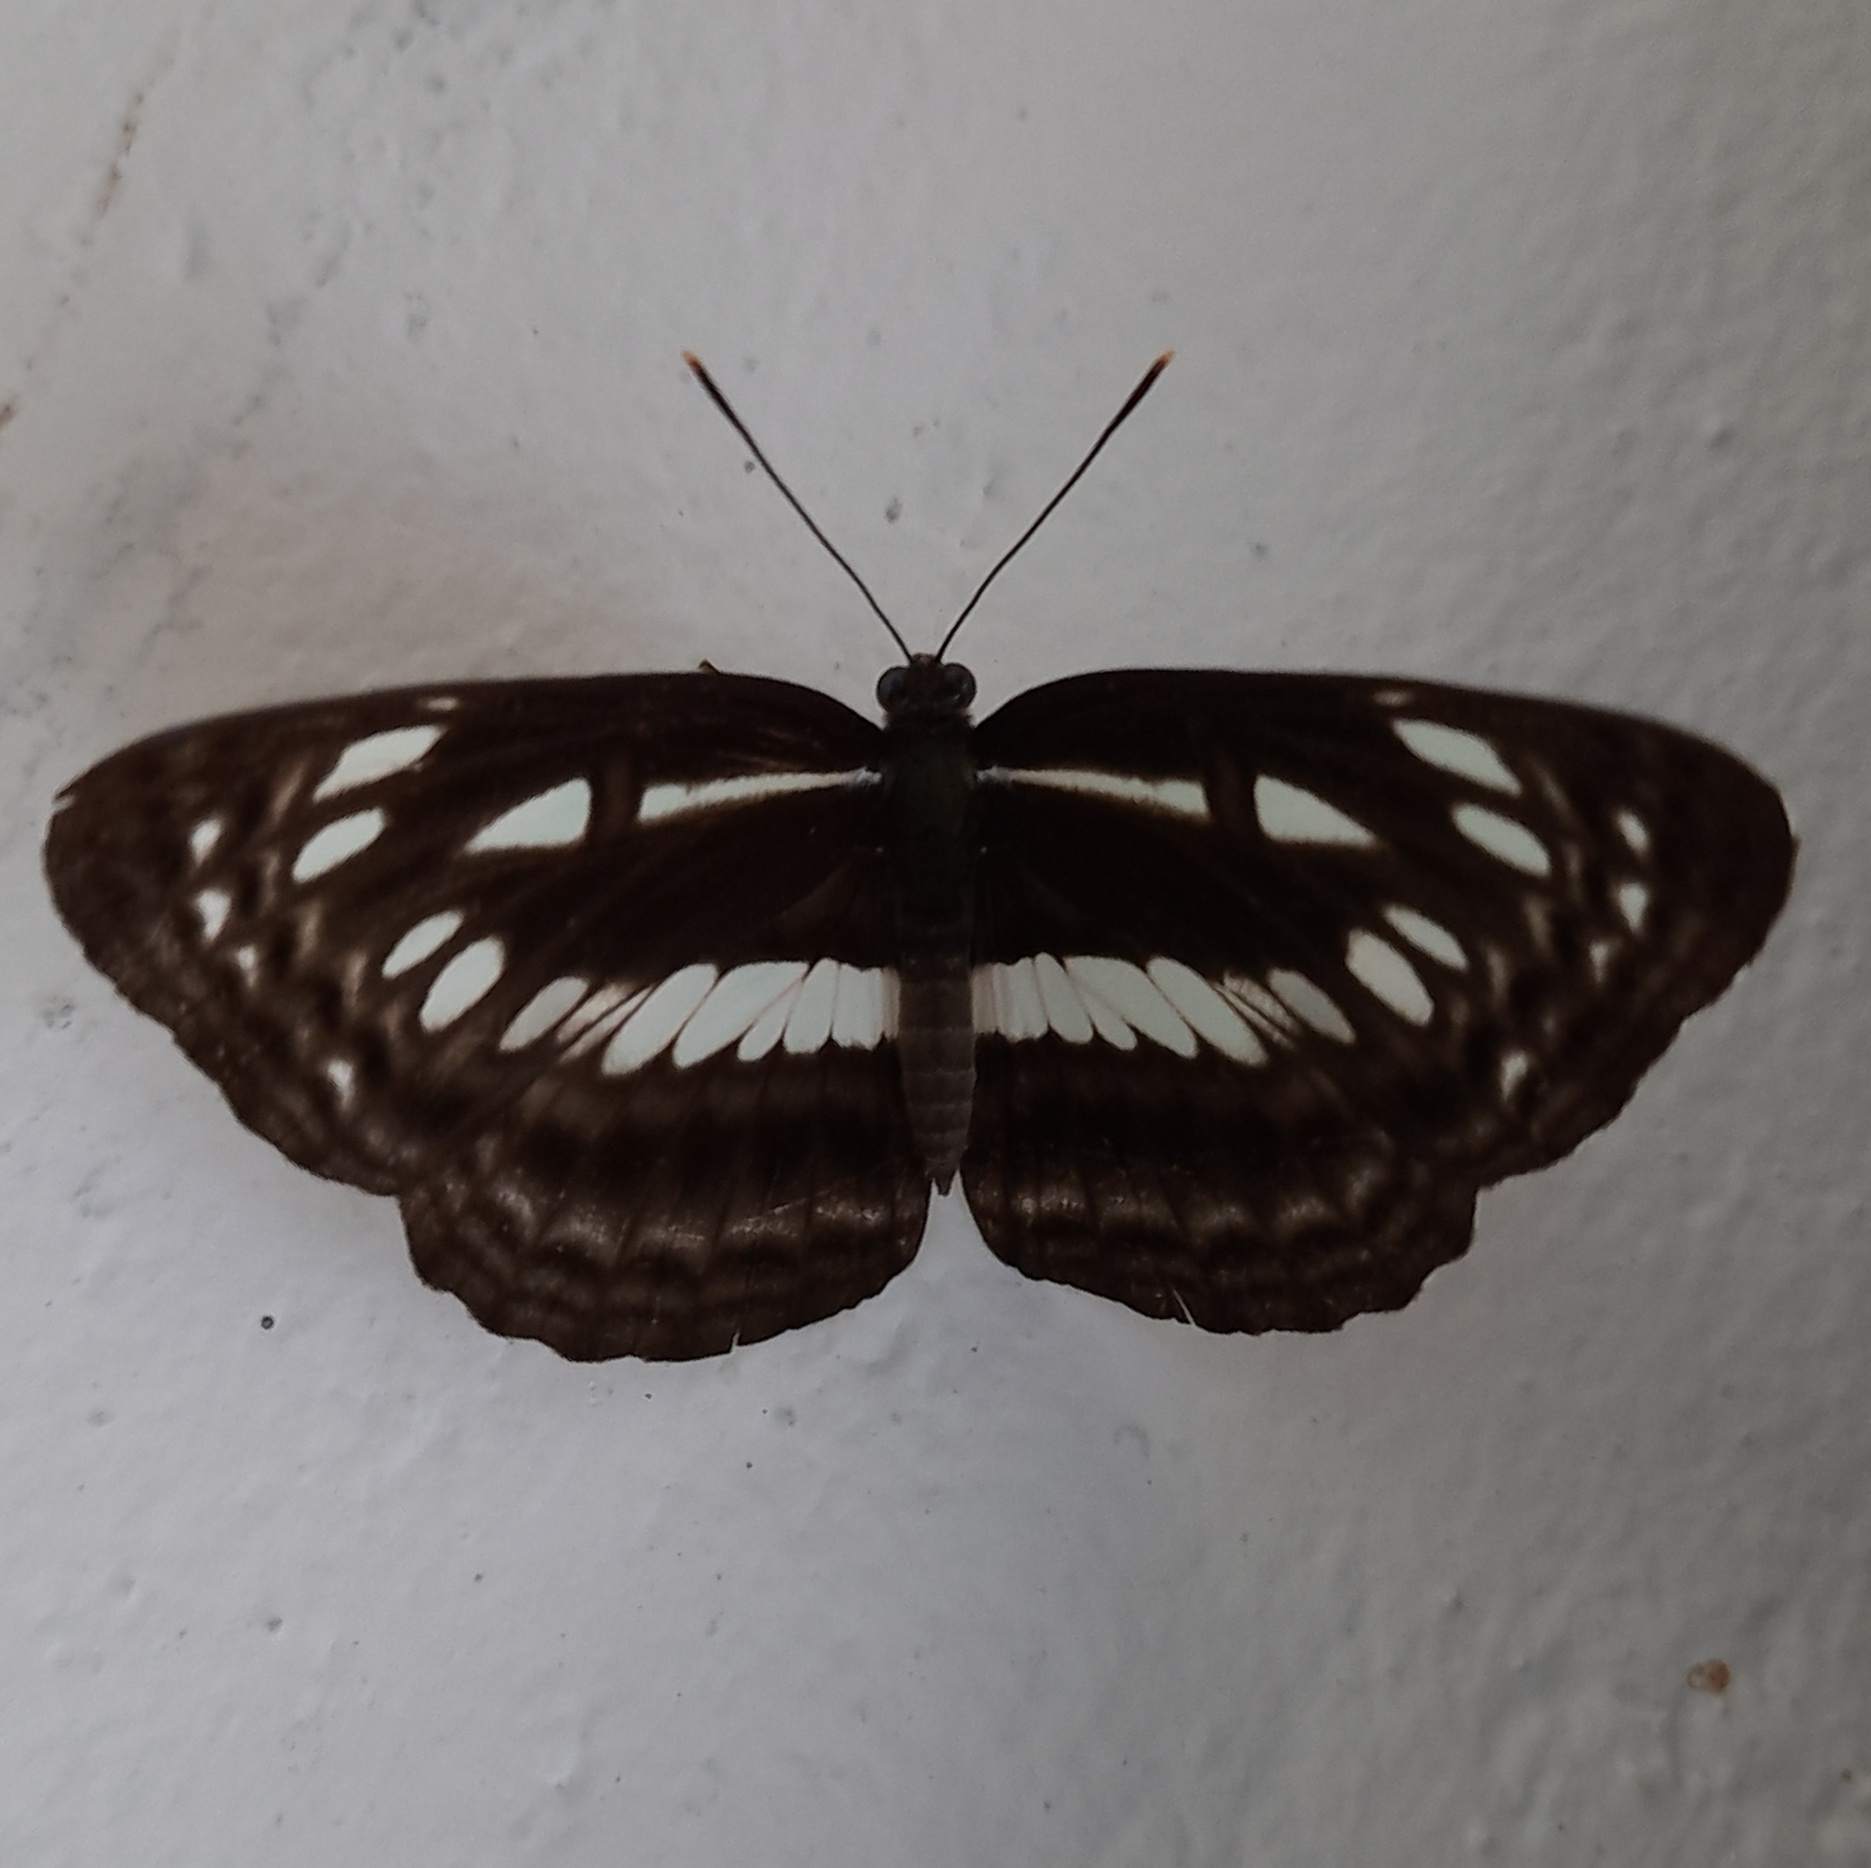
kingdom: Animalia
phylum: Arthropoda
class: Insecta
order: Lepidoptera
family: Nymphalidae
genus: Neptis
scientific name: Neptis jumbah
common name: Chestnut-streaked sailer
